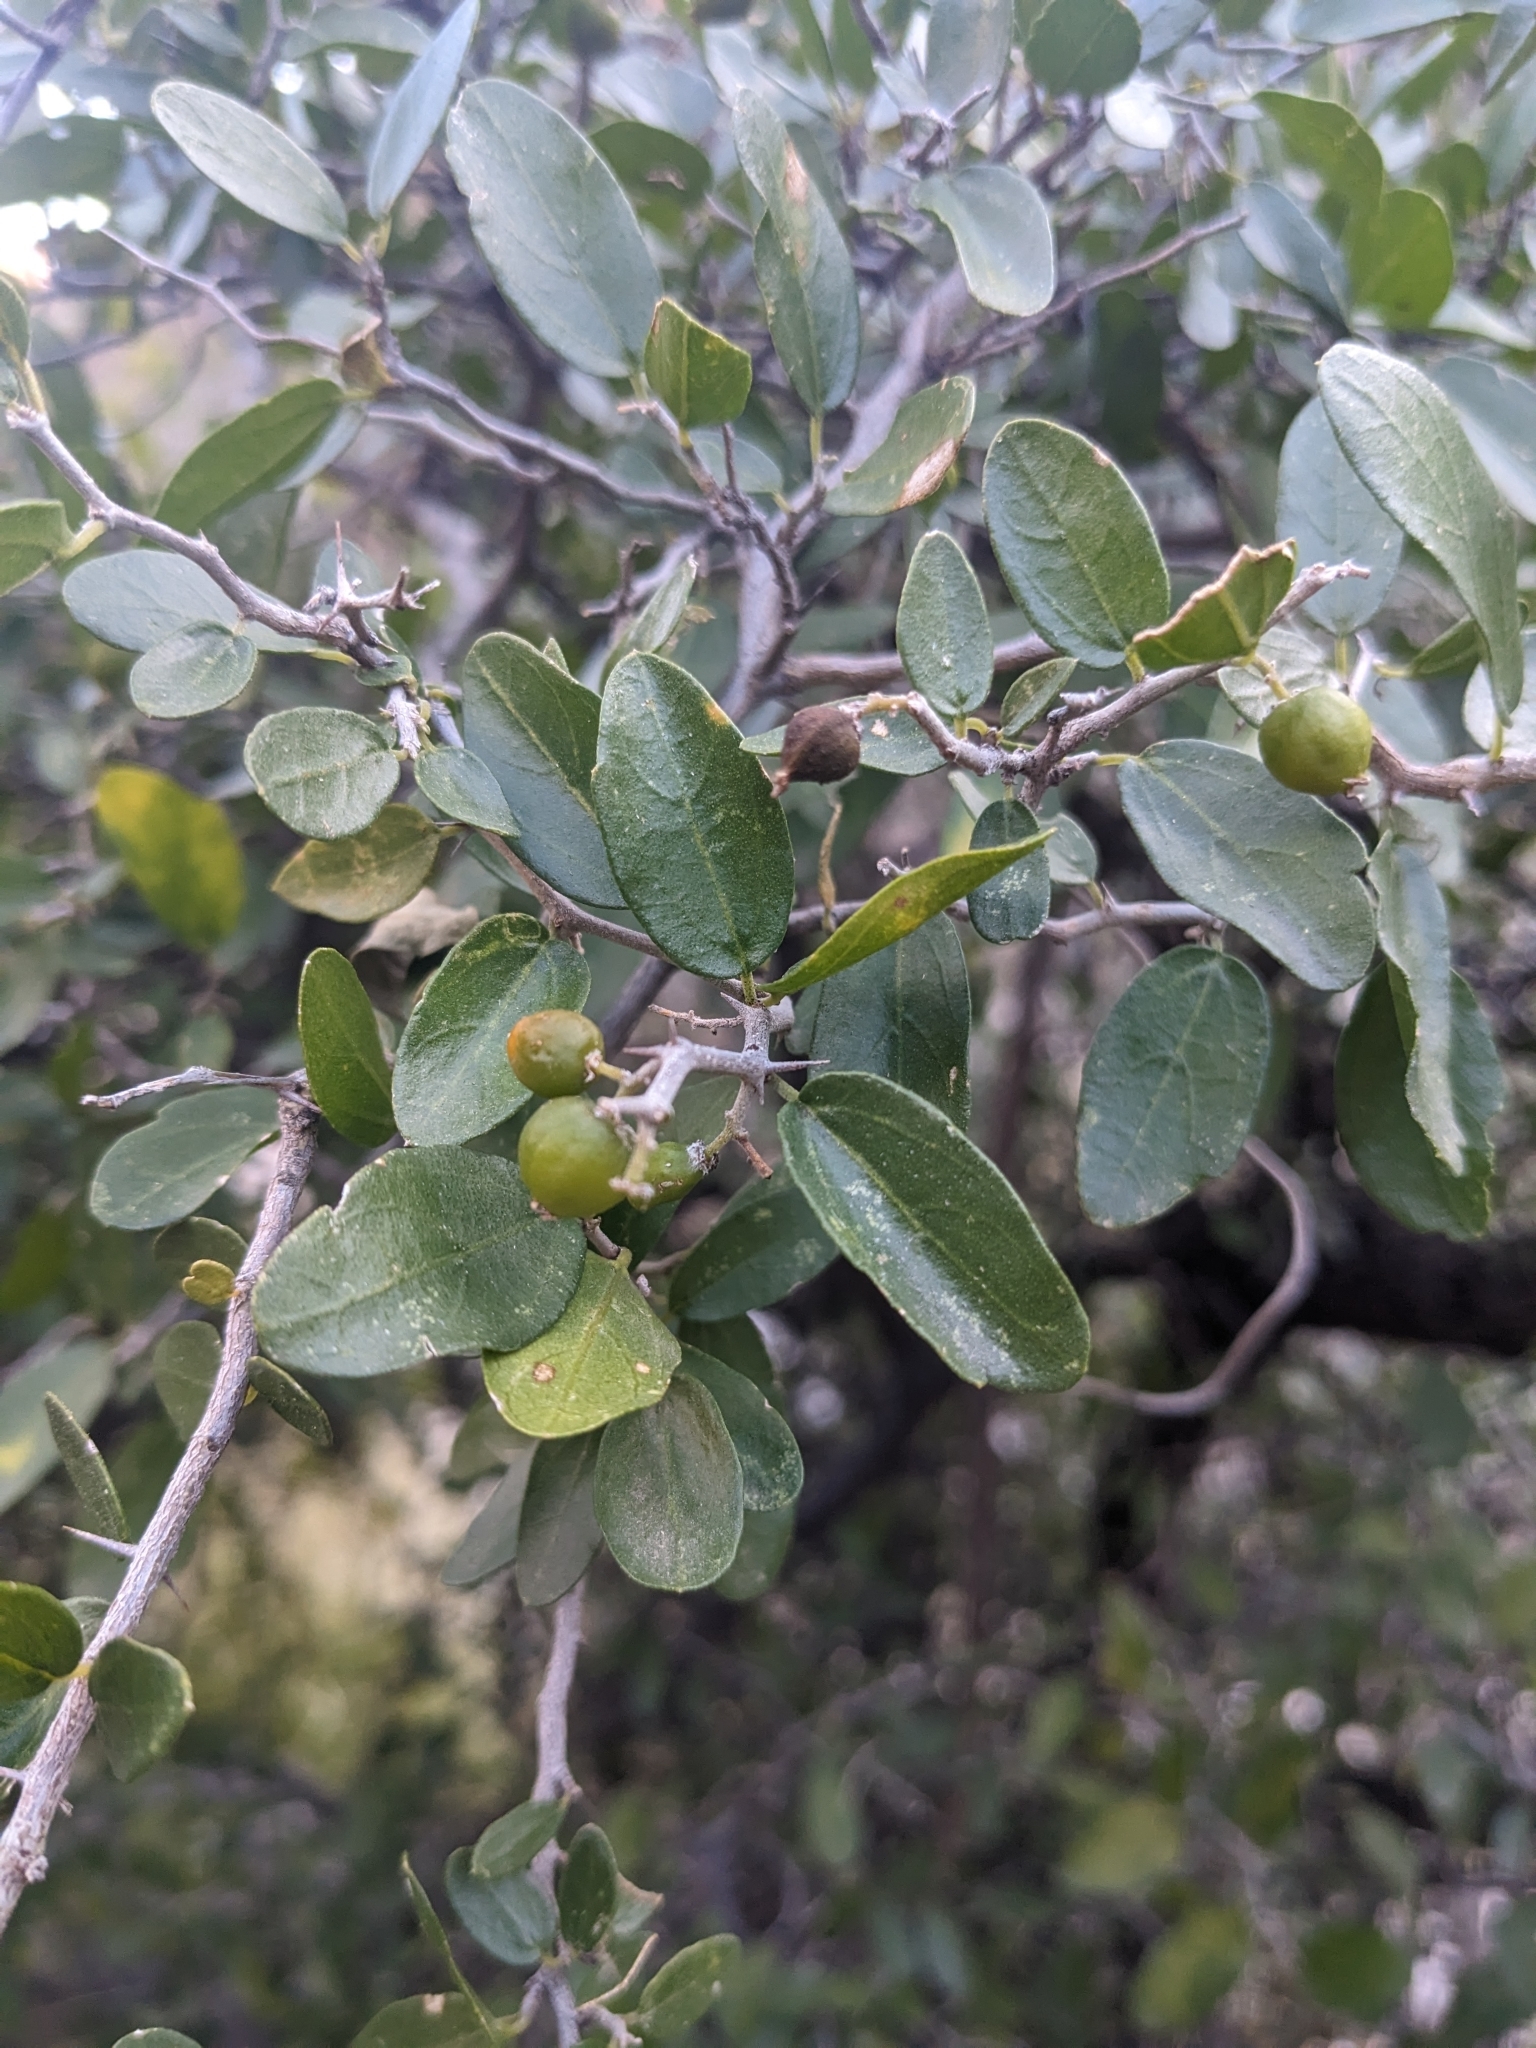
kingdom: Plantae
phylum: Tracheophyta
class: Magnoliopsida
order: Rosales
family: Cannabaceae
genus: Celtis
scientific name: Celtis pallida
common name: Desert hackberry
